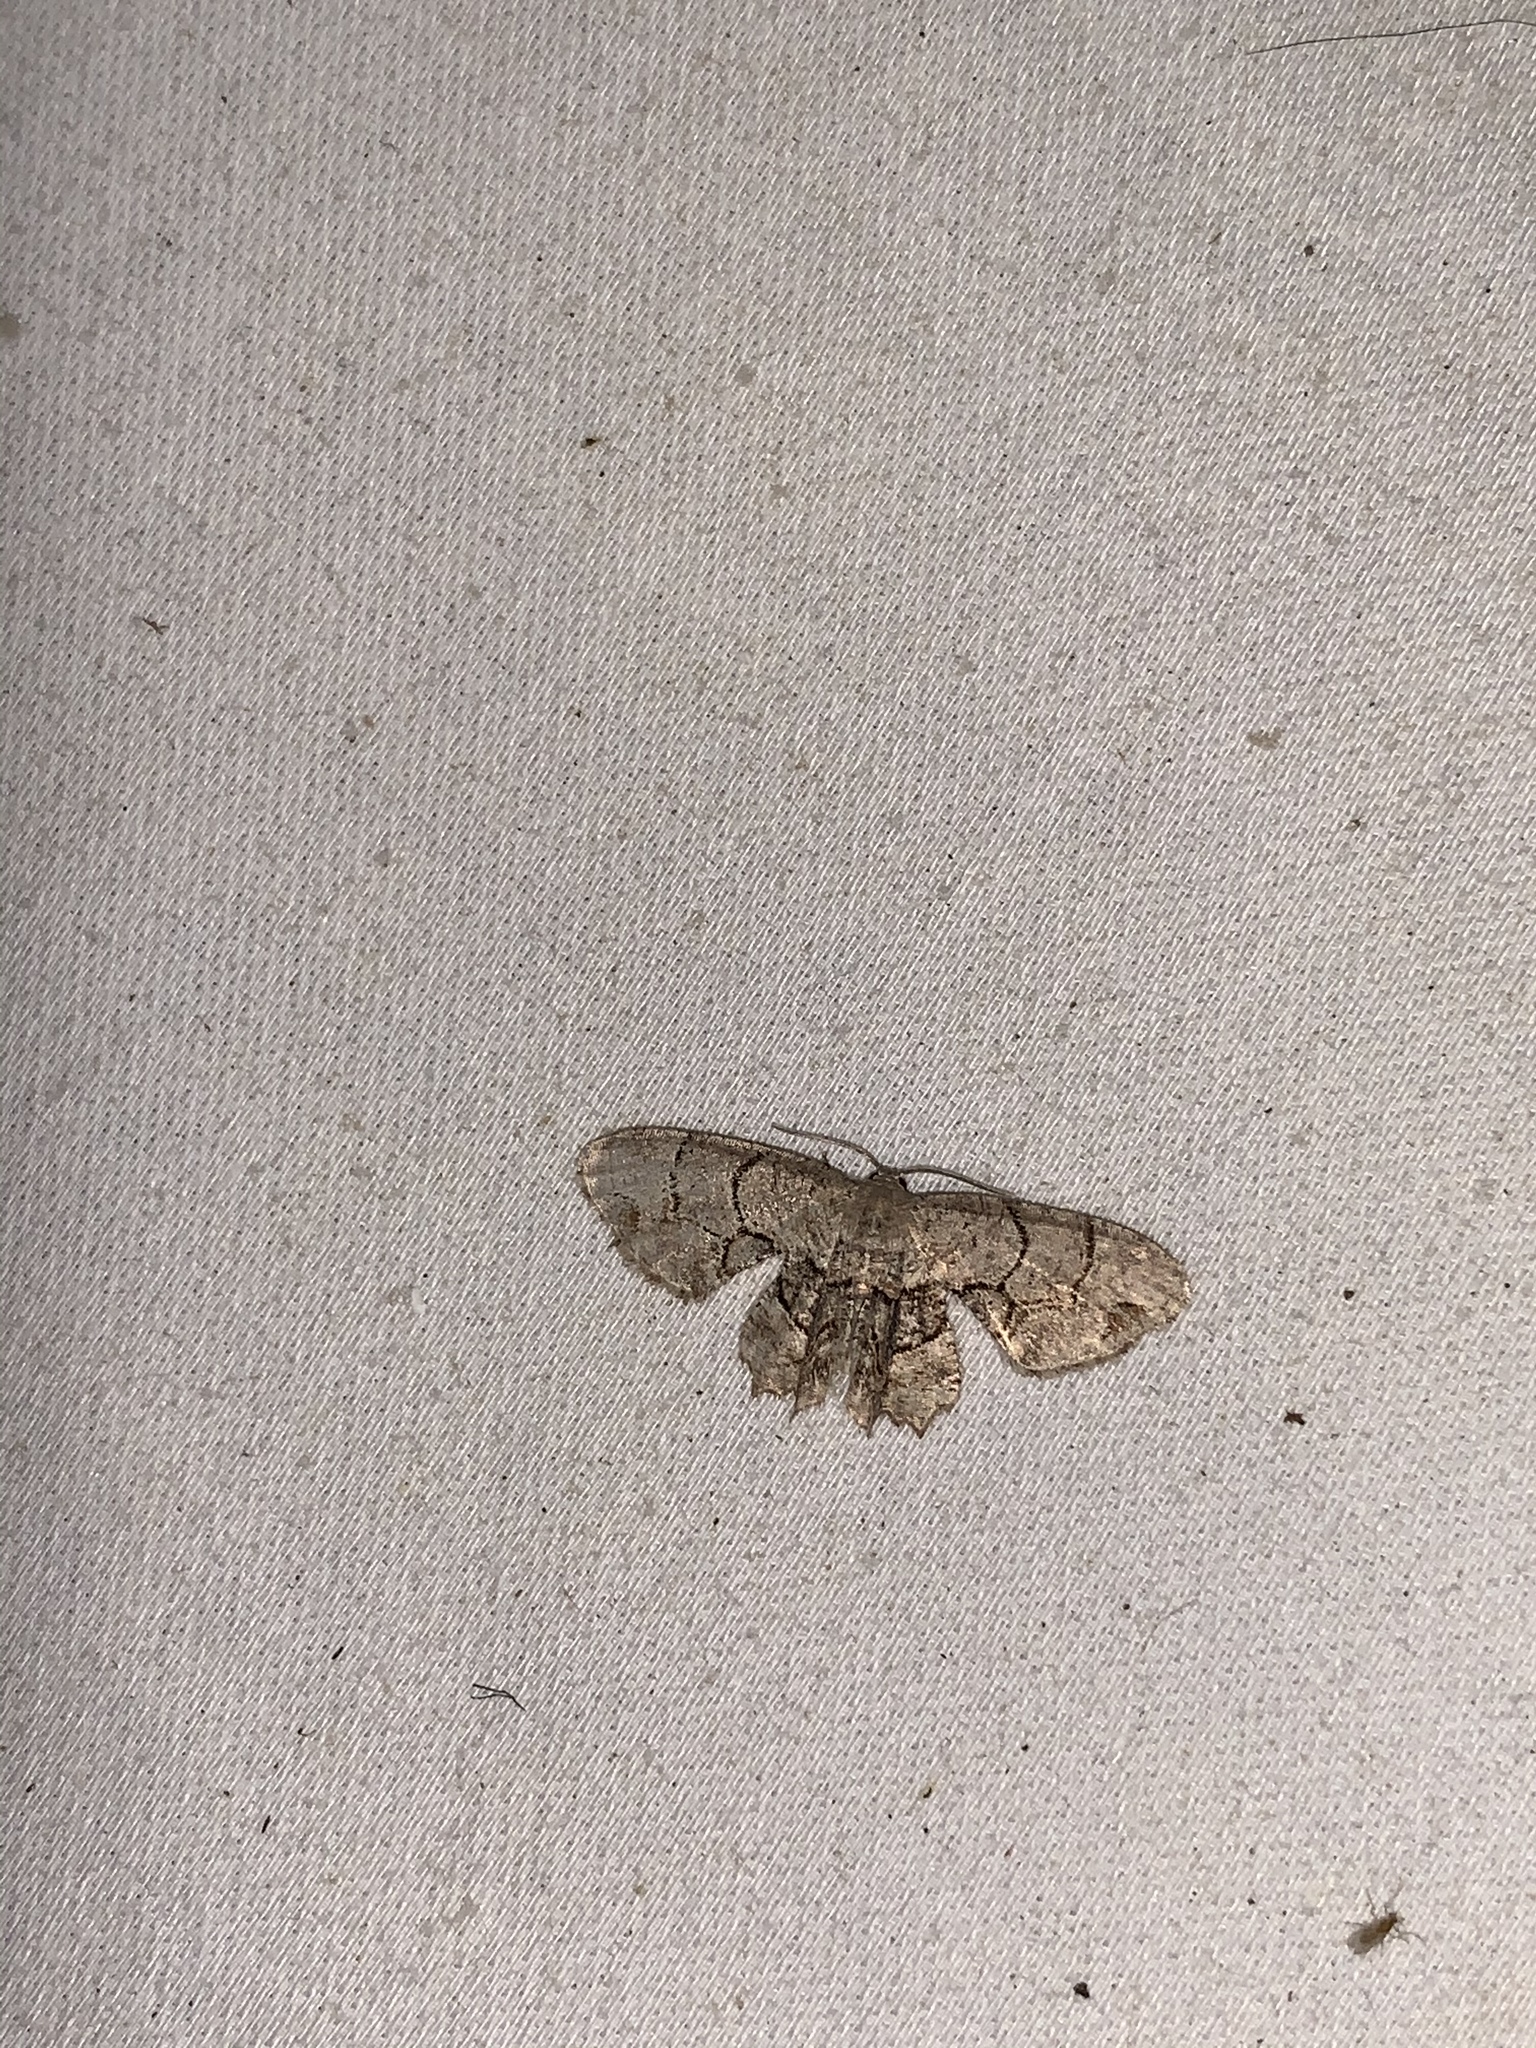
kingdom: Animalia
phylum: Arthropoda
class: Insecta
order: Lepidoptera
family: Uraniidae
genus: Epiplema
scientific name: Epiplema Callizzia amorata
